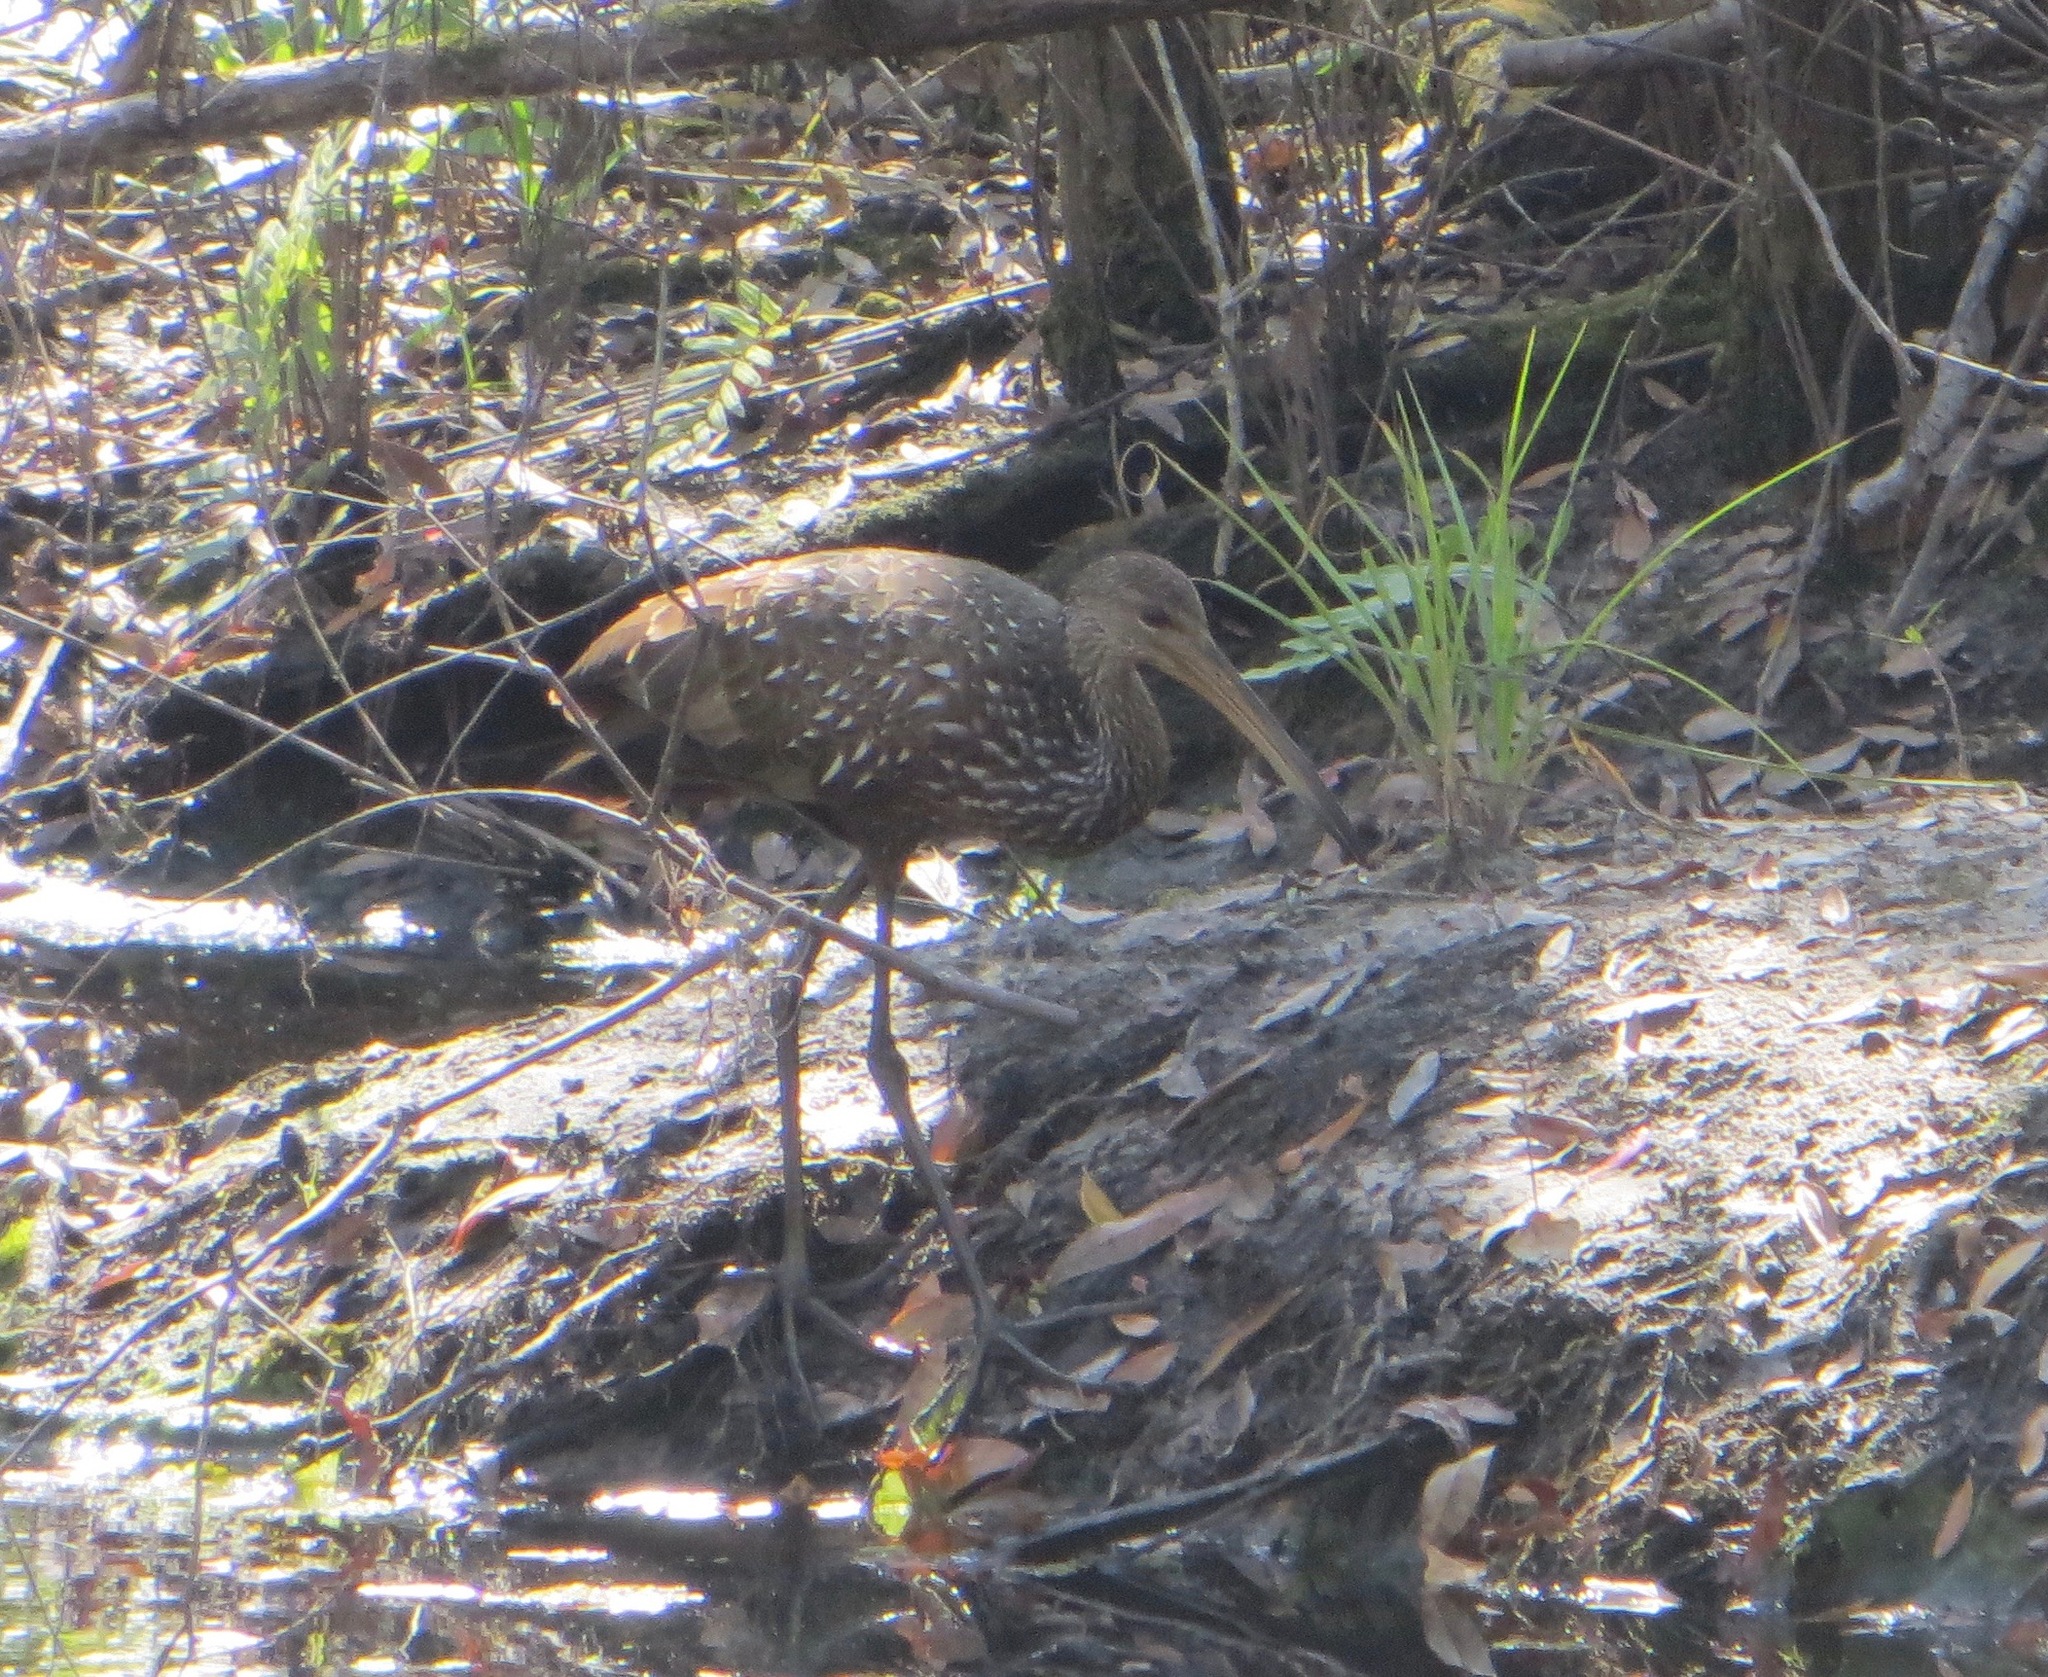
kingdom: Animalia
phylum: Chordata
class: Aves
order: Gruiformes
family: Aramidae
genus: Aramus
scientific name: Aramus guarauna
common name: Limpkin
